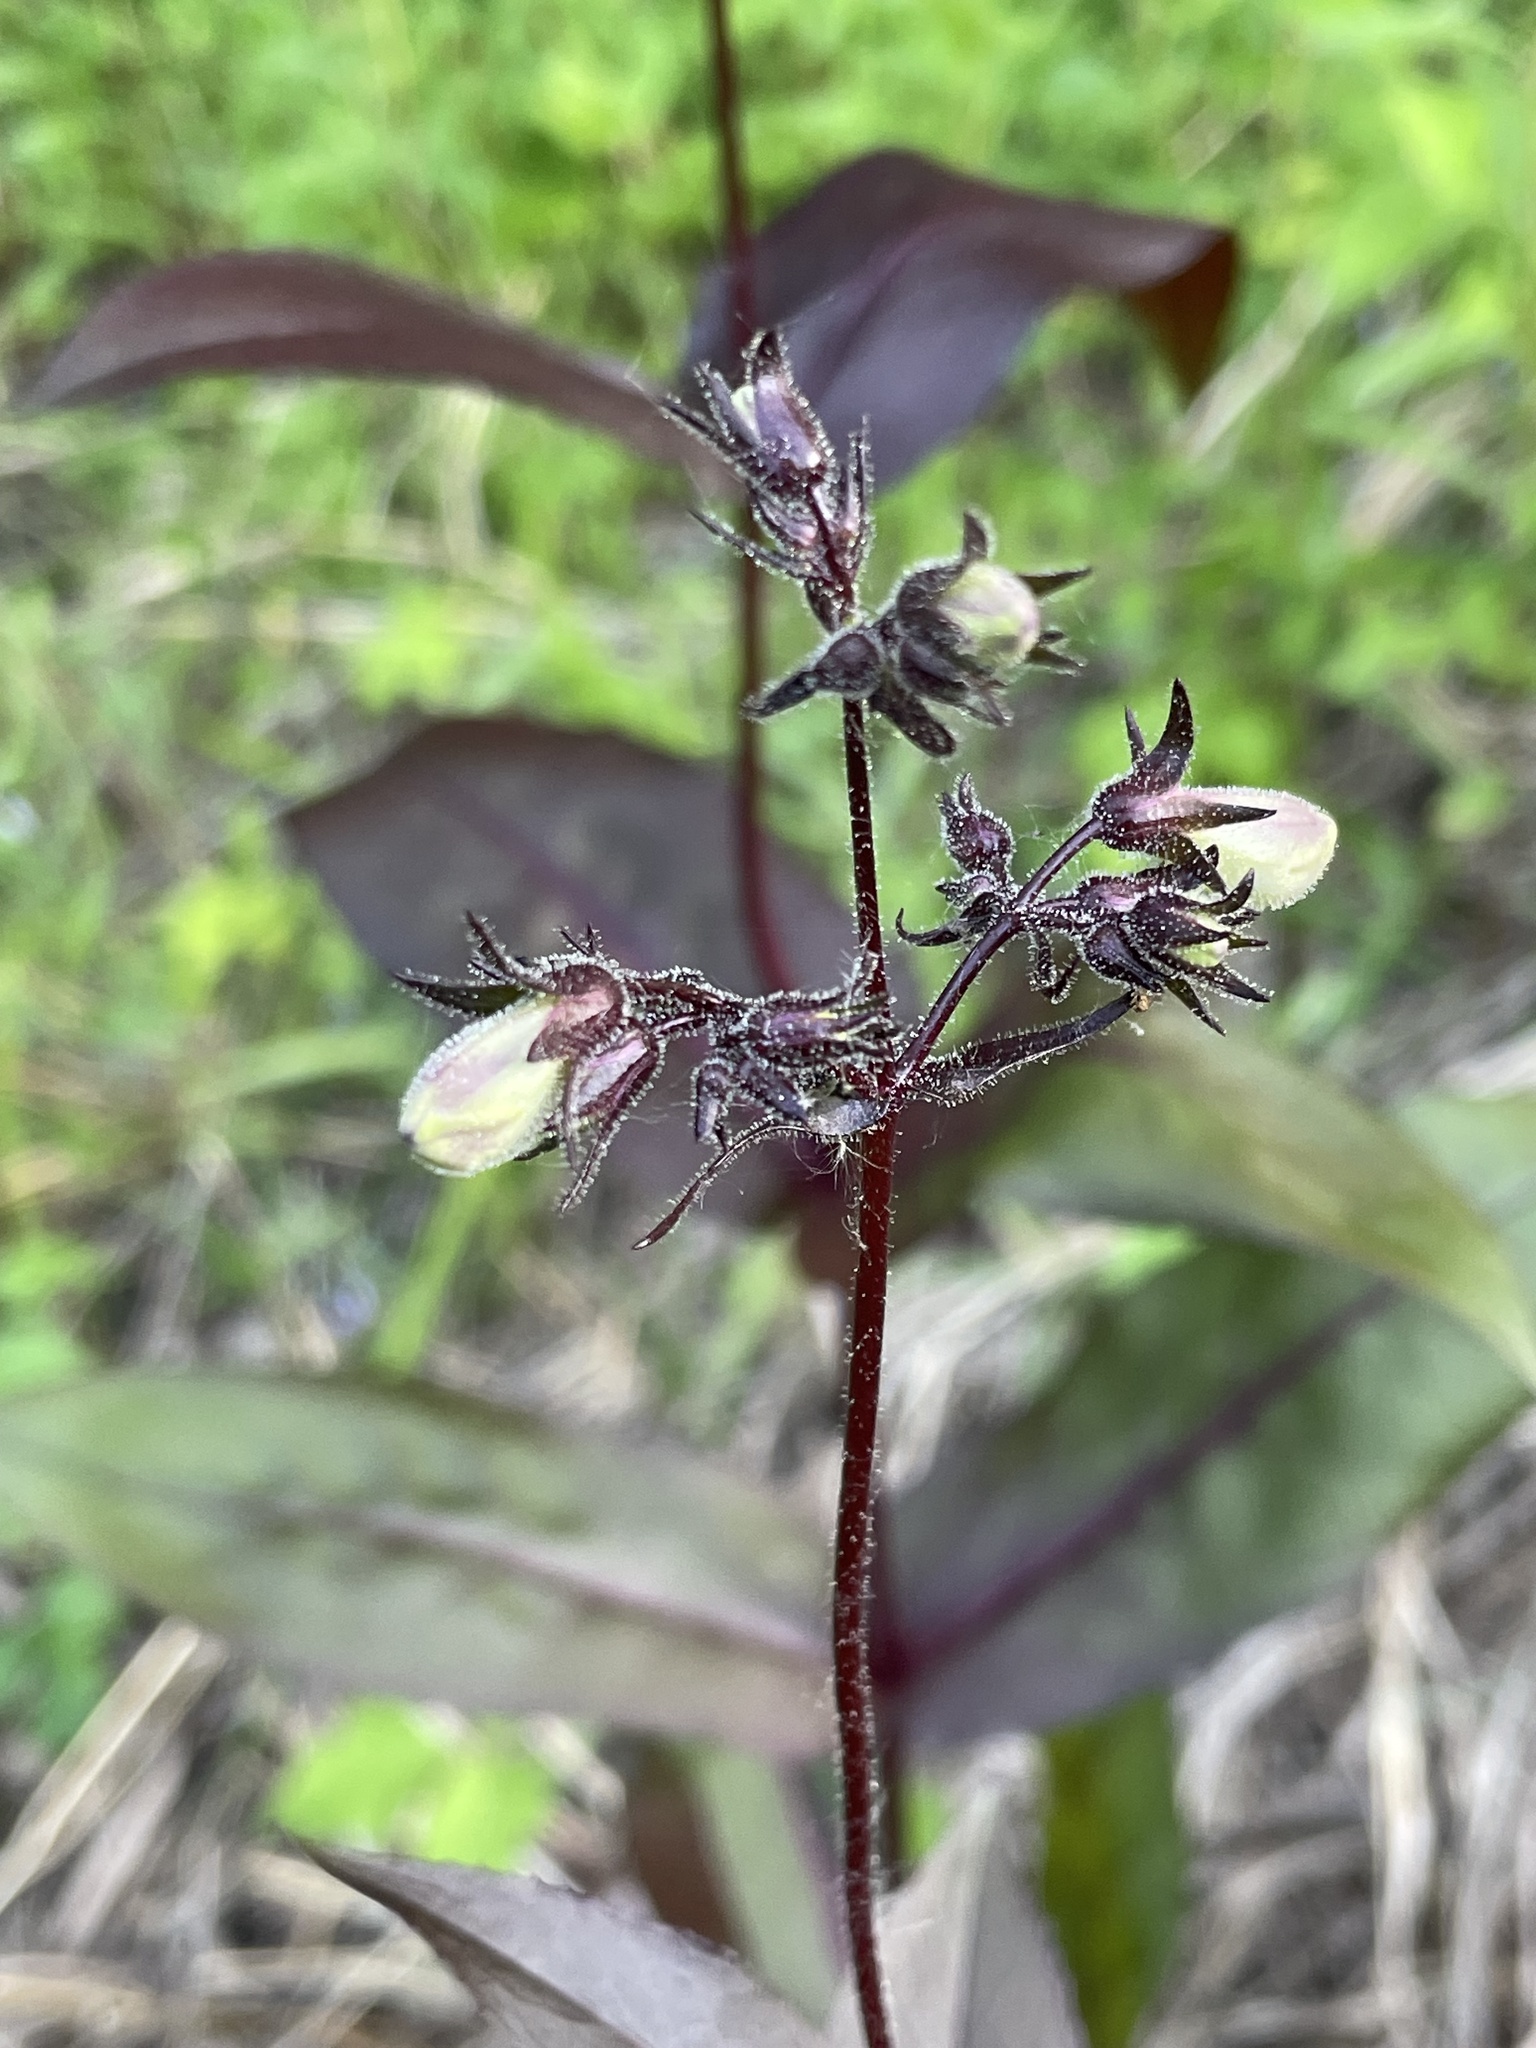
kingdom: Plantae
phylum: Tracheophyta
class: Magnoliopsida
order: Lamiales
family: Plantaginaceae
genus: Penstemon
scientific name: Penstemon digitalis
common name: Foxglove beardtongue
